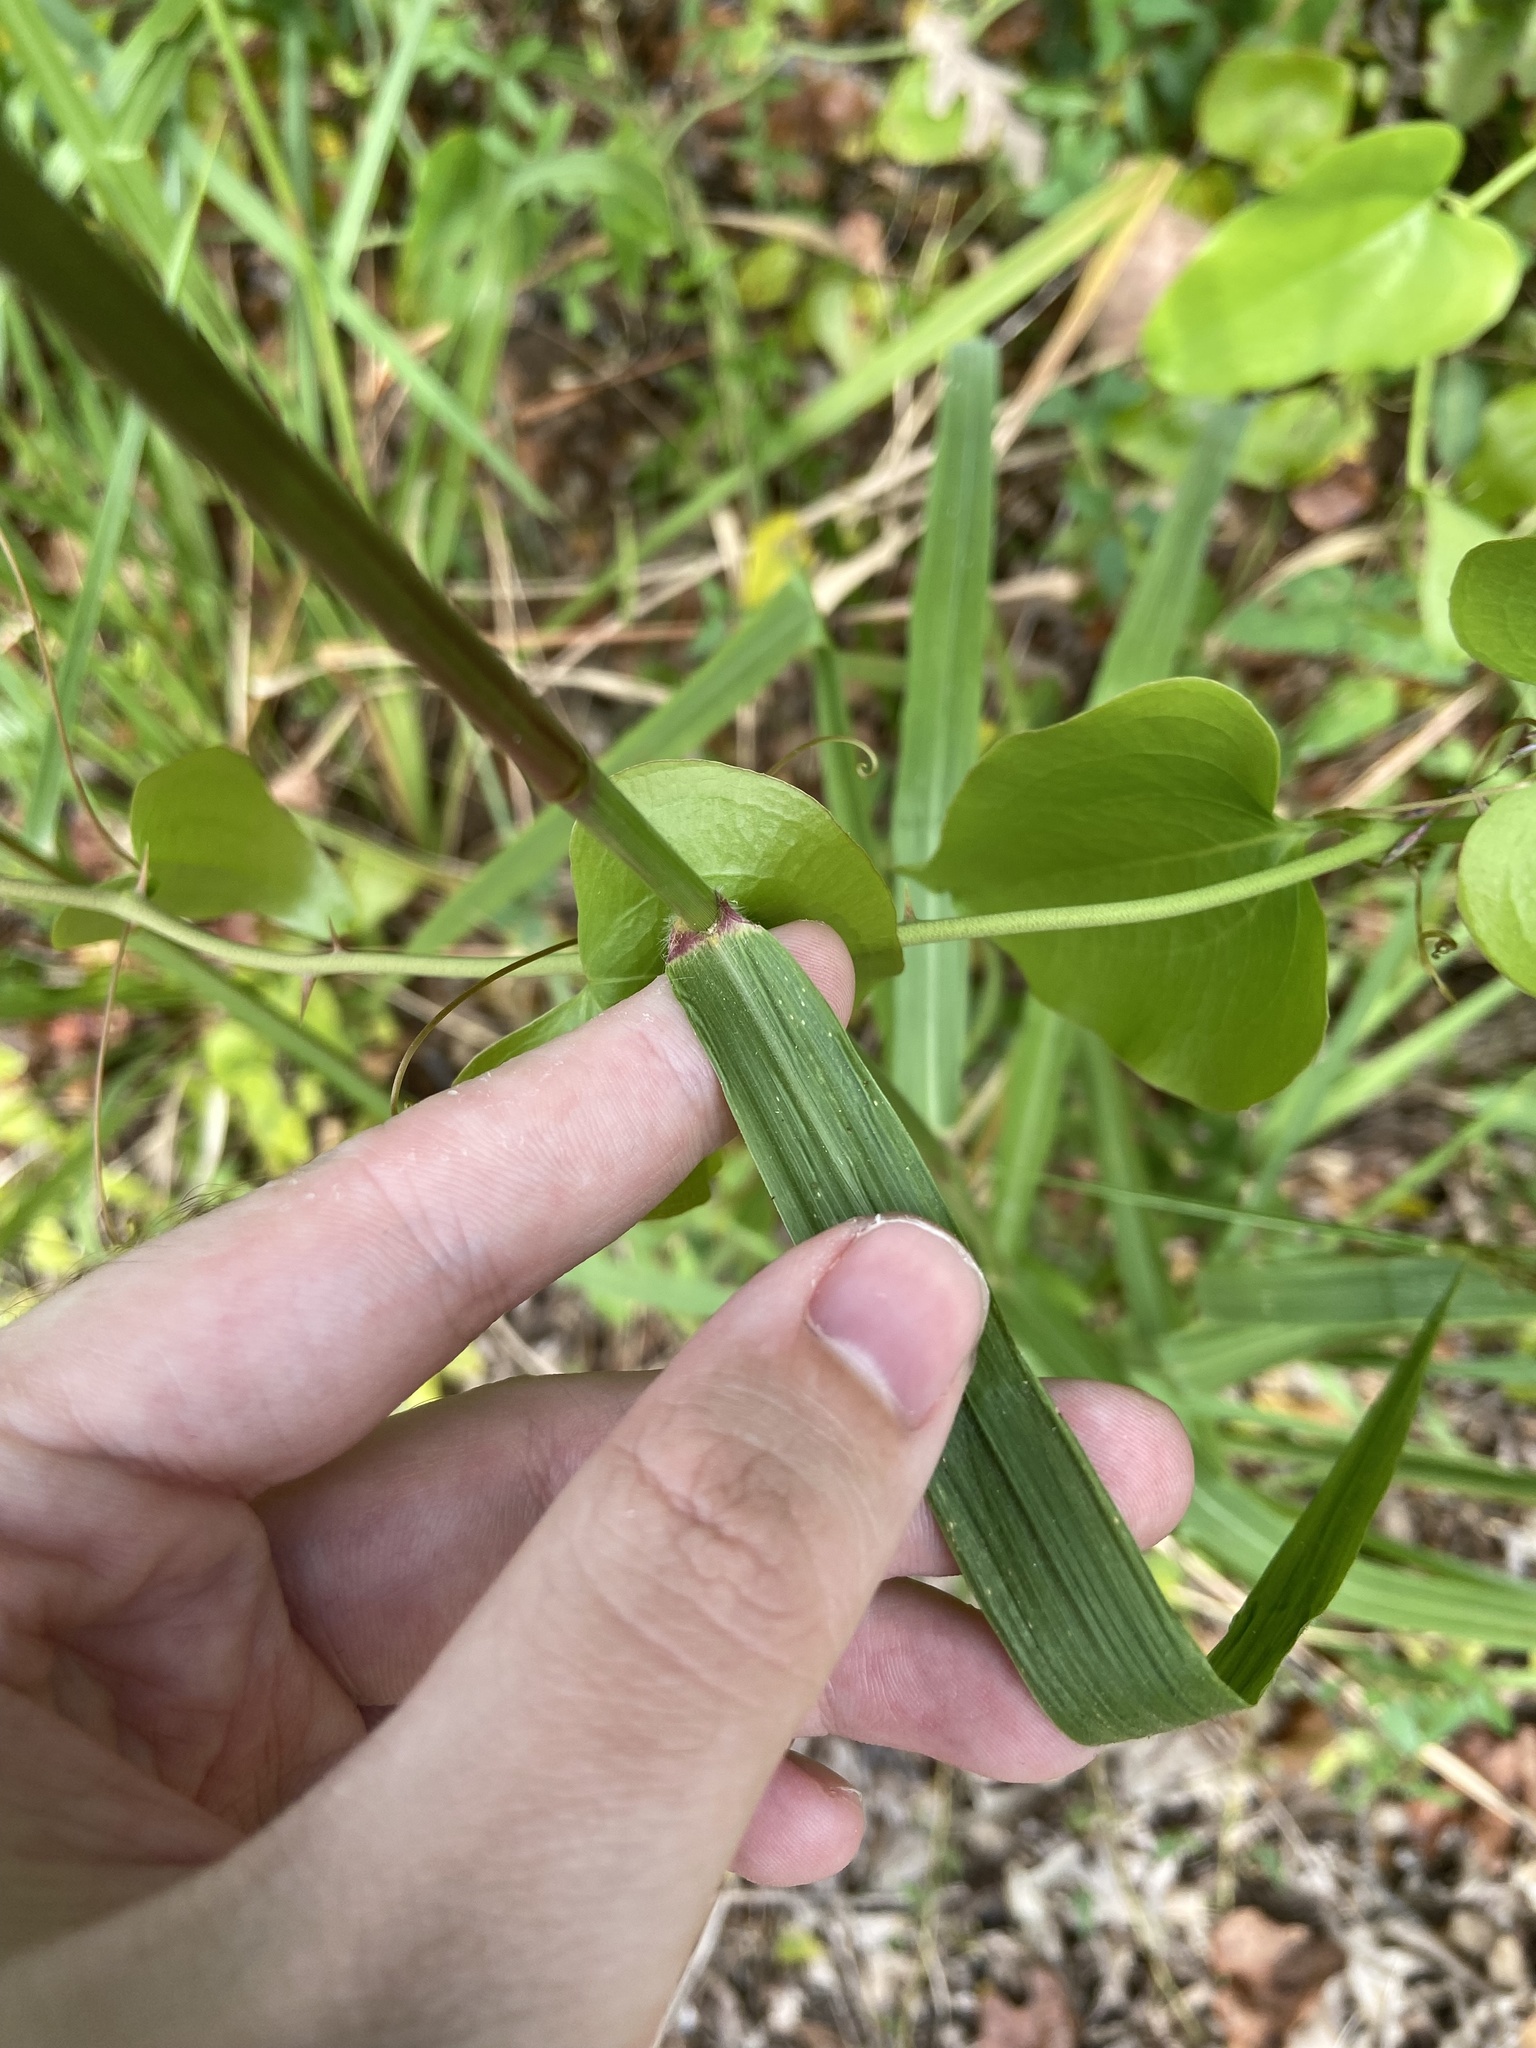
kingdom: Plantae
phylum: Tracheophyta
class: Liliopsida
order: Poales
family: Poaceae
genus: Tridens
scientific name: Tridens flavus
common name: Purpletop
